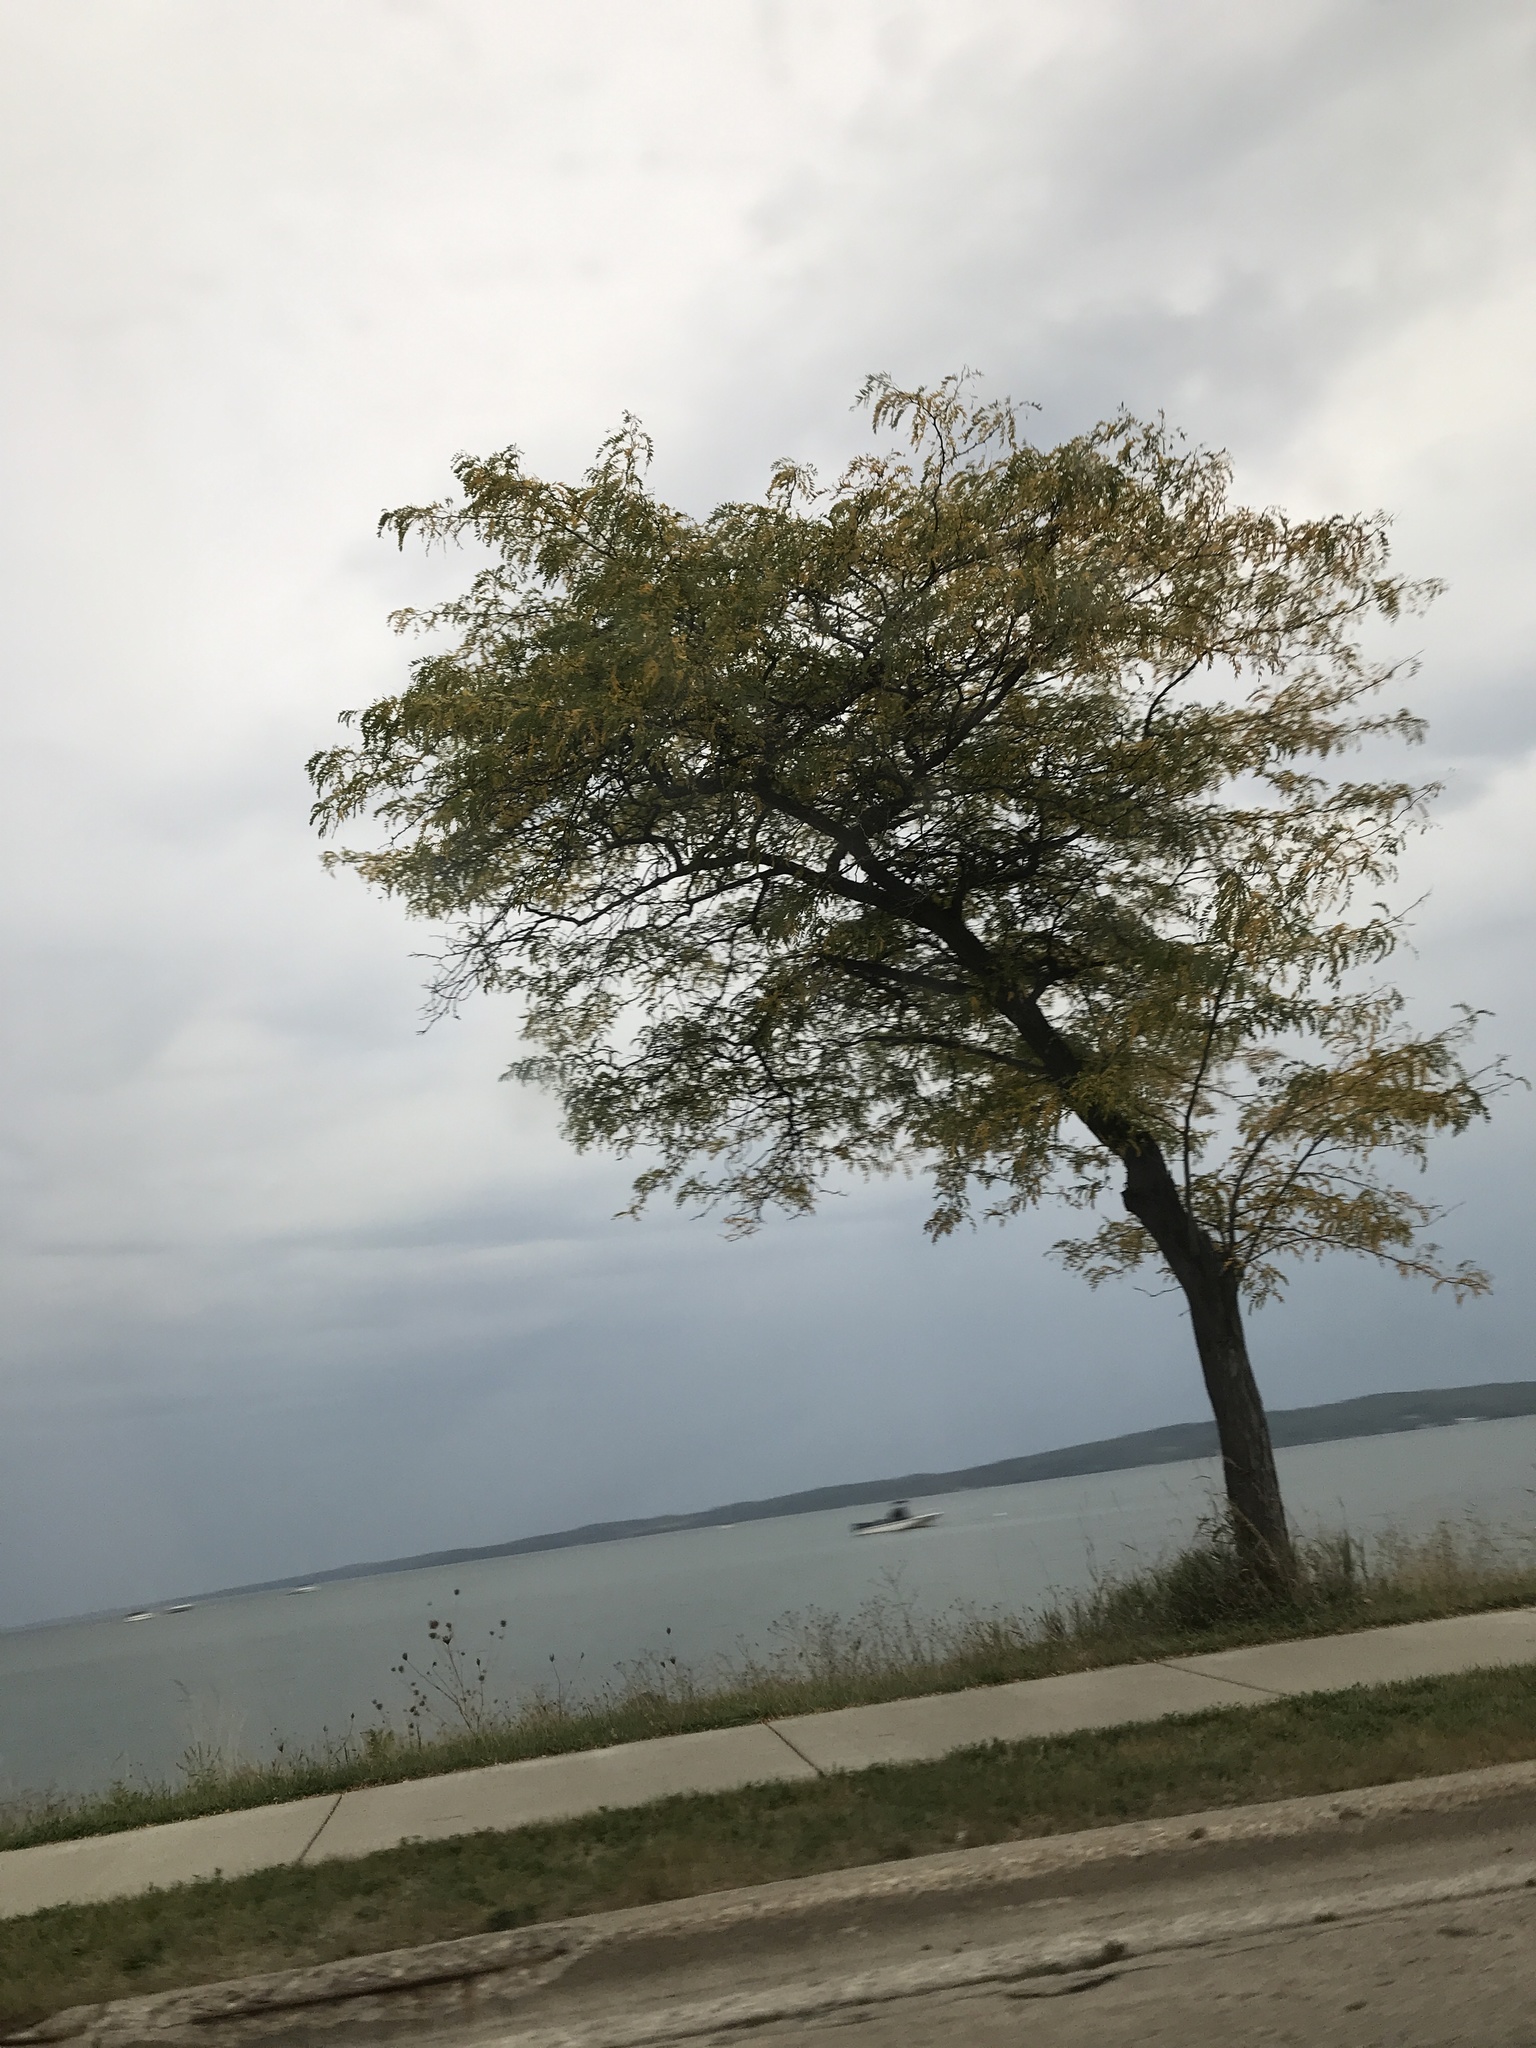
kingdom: Plantae
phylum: Tracheophyta
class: Magnoliopsida
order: Fabales
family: Fabaceae
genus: Gleditsia
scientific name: Gleditsia triacanthos
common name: Common honeylocust
